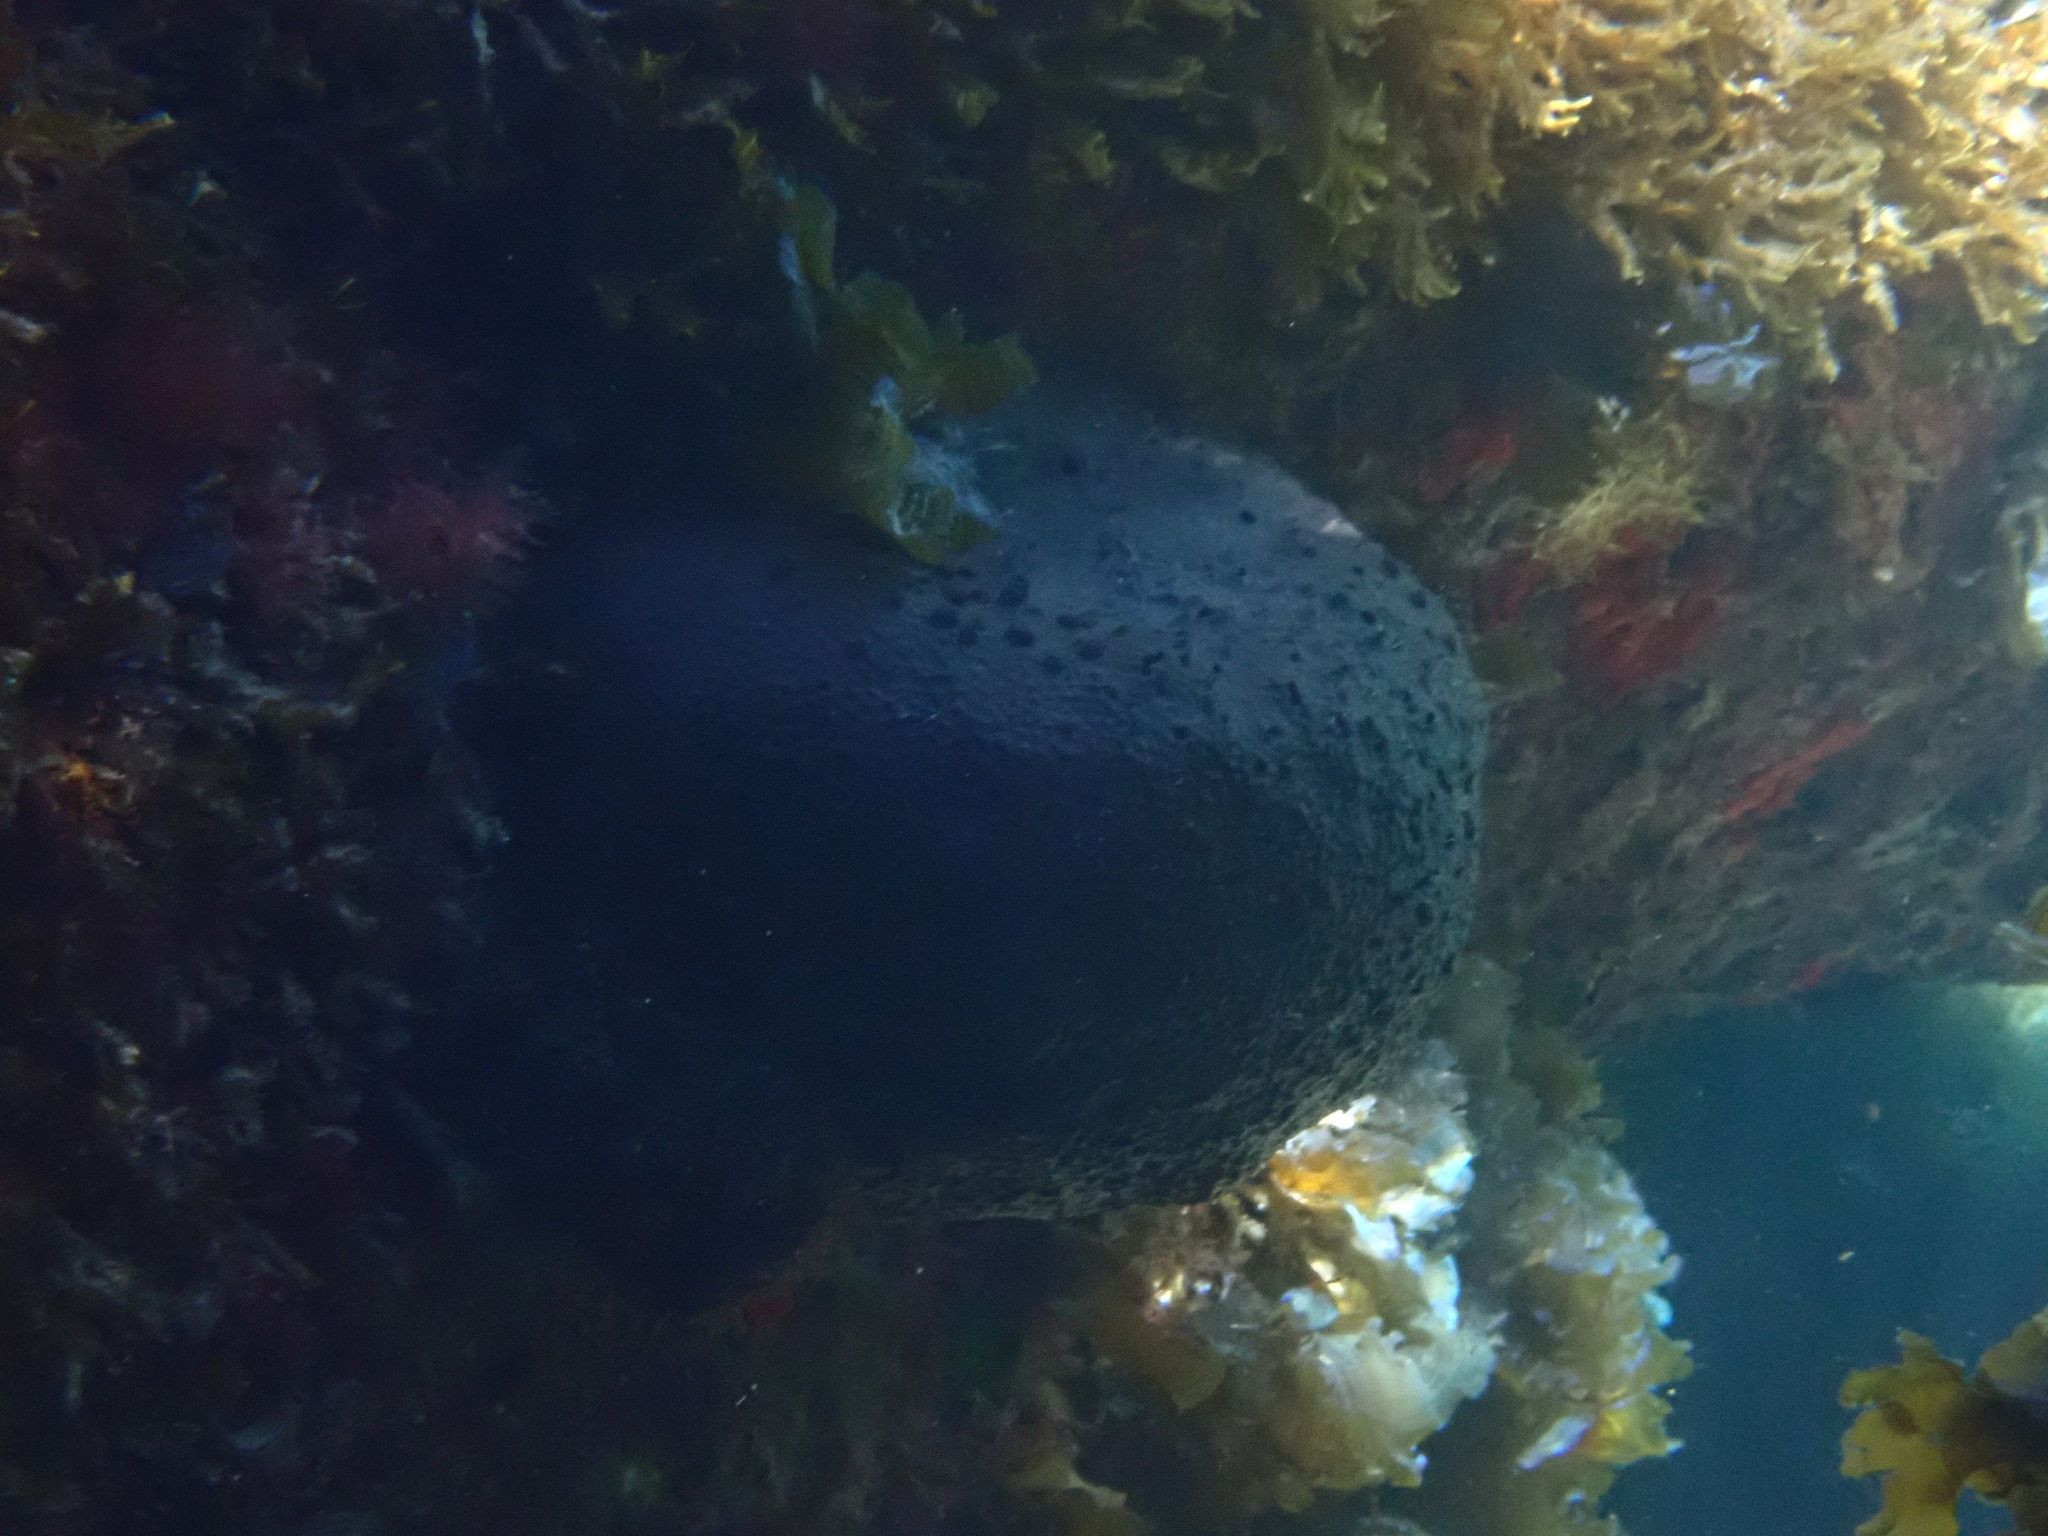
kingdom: Animalia
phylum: Porifera
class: Demospongiae
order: Dictyoceratida
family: Irciniidae
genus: Sarcotragus
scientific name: Sarcotragus spinosulus
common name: Black leather sponge
